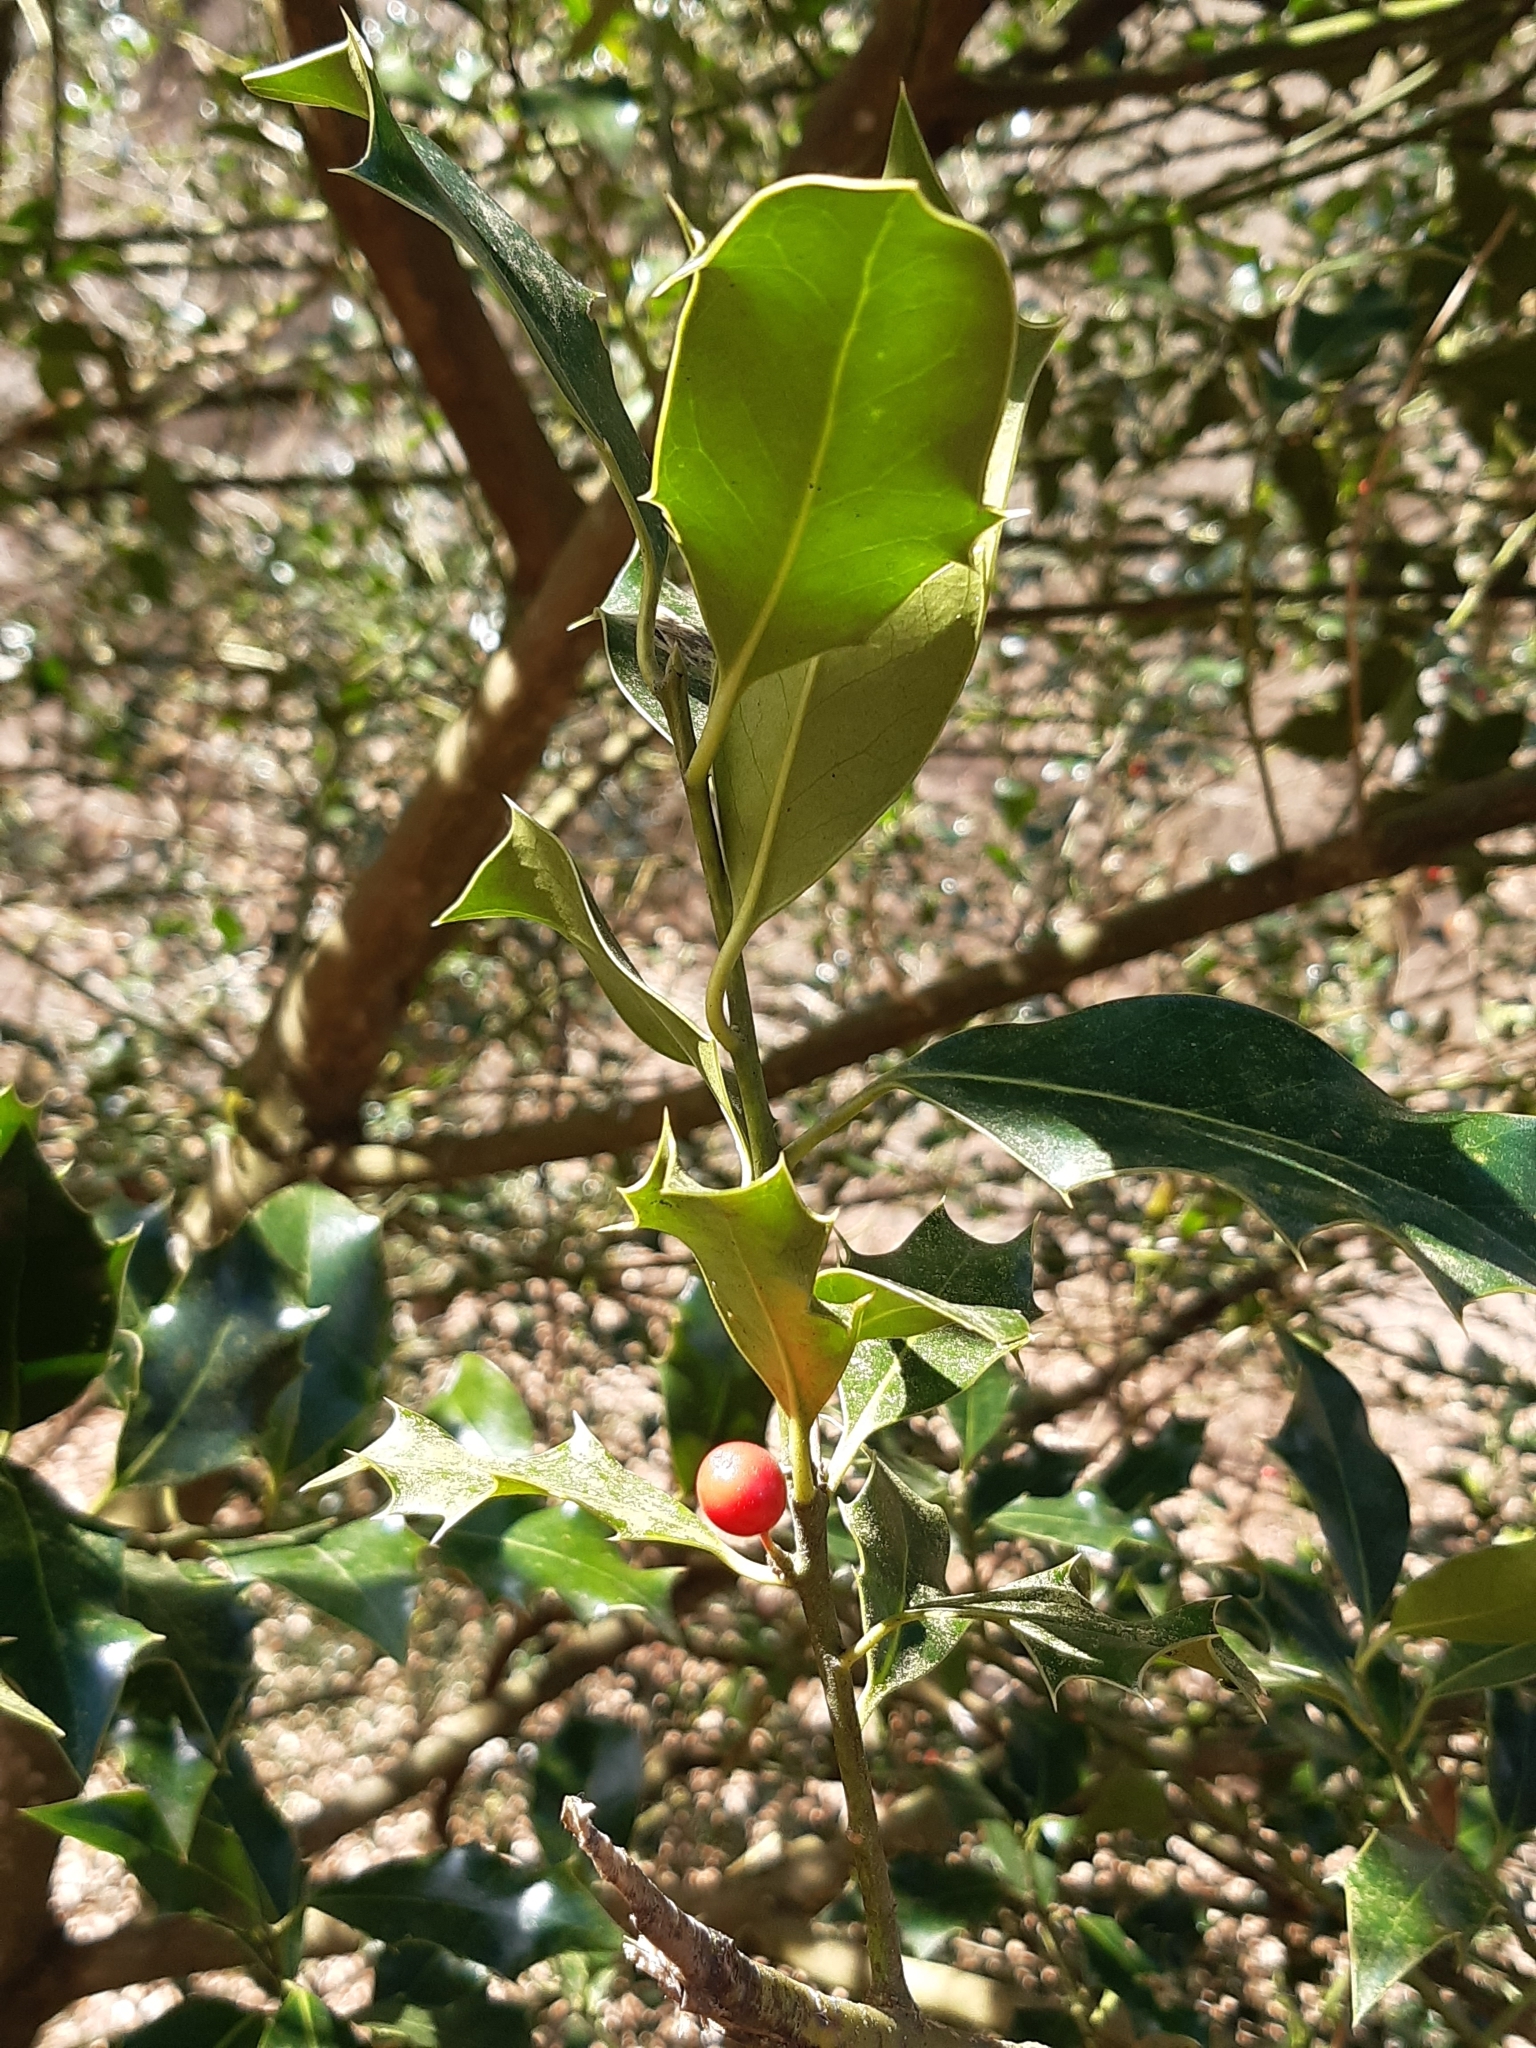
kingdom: Plantae
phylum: Tracheophyta
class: Magnoliopsida
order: Aquifoliales
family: Aquifoliaceae
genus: Ilex
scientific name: Ilex aquifolium
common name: English holly
